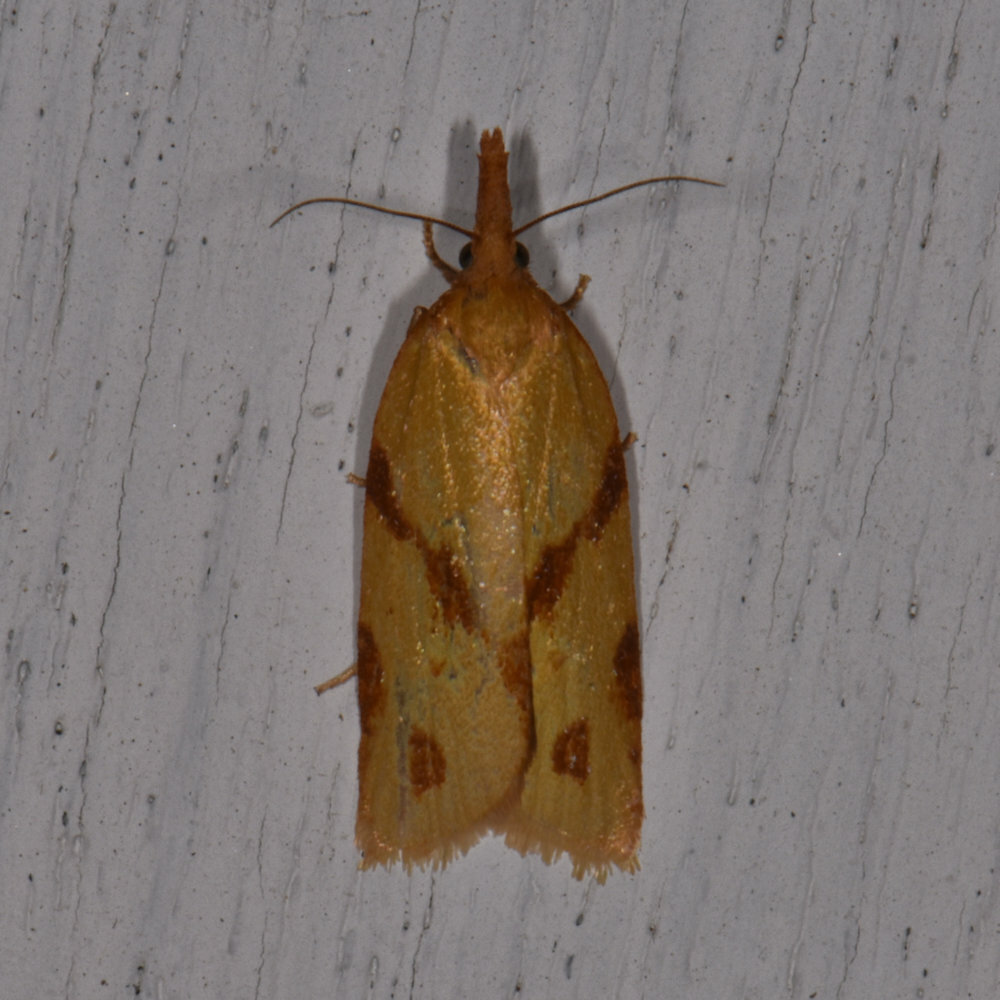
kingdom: Animalia
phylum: Arthropoda
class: Insecta
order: Lepidoptera
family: Tortricidae
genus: Sparganothis
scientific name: Sparganothis unifasciana
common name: One-lined sparganothis moth
